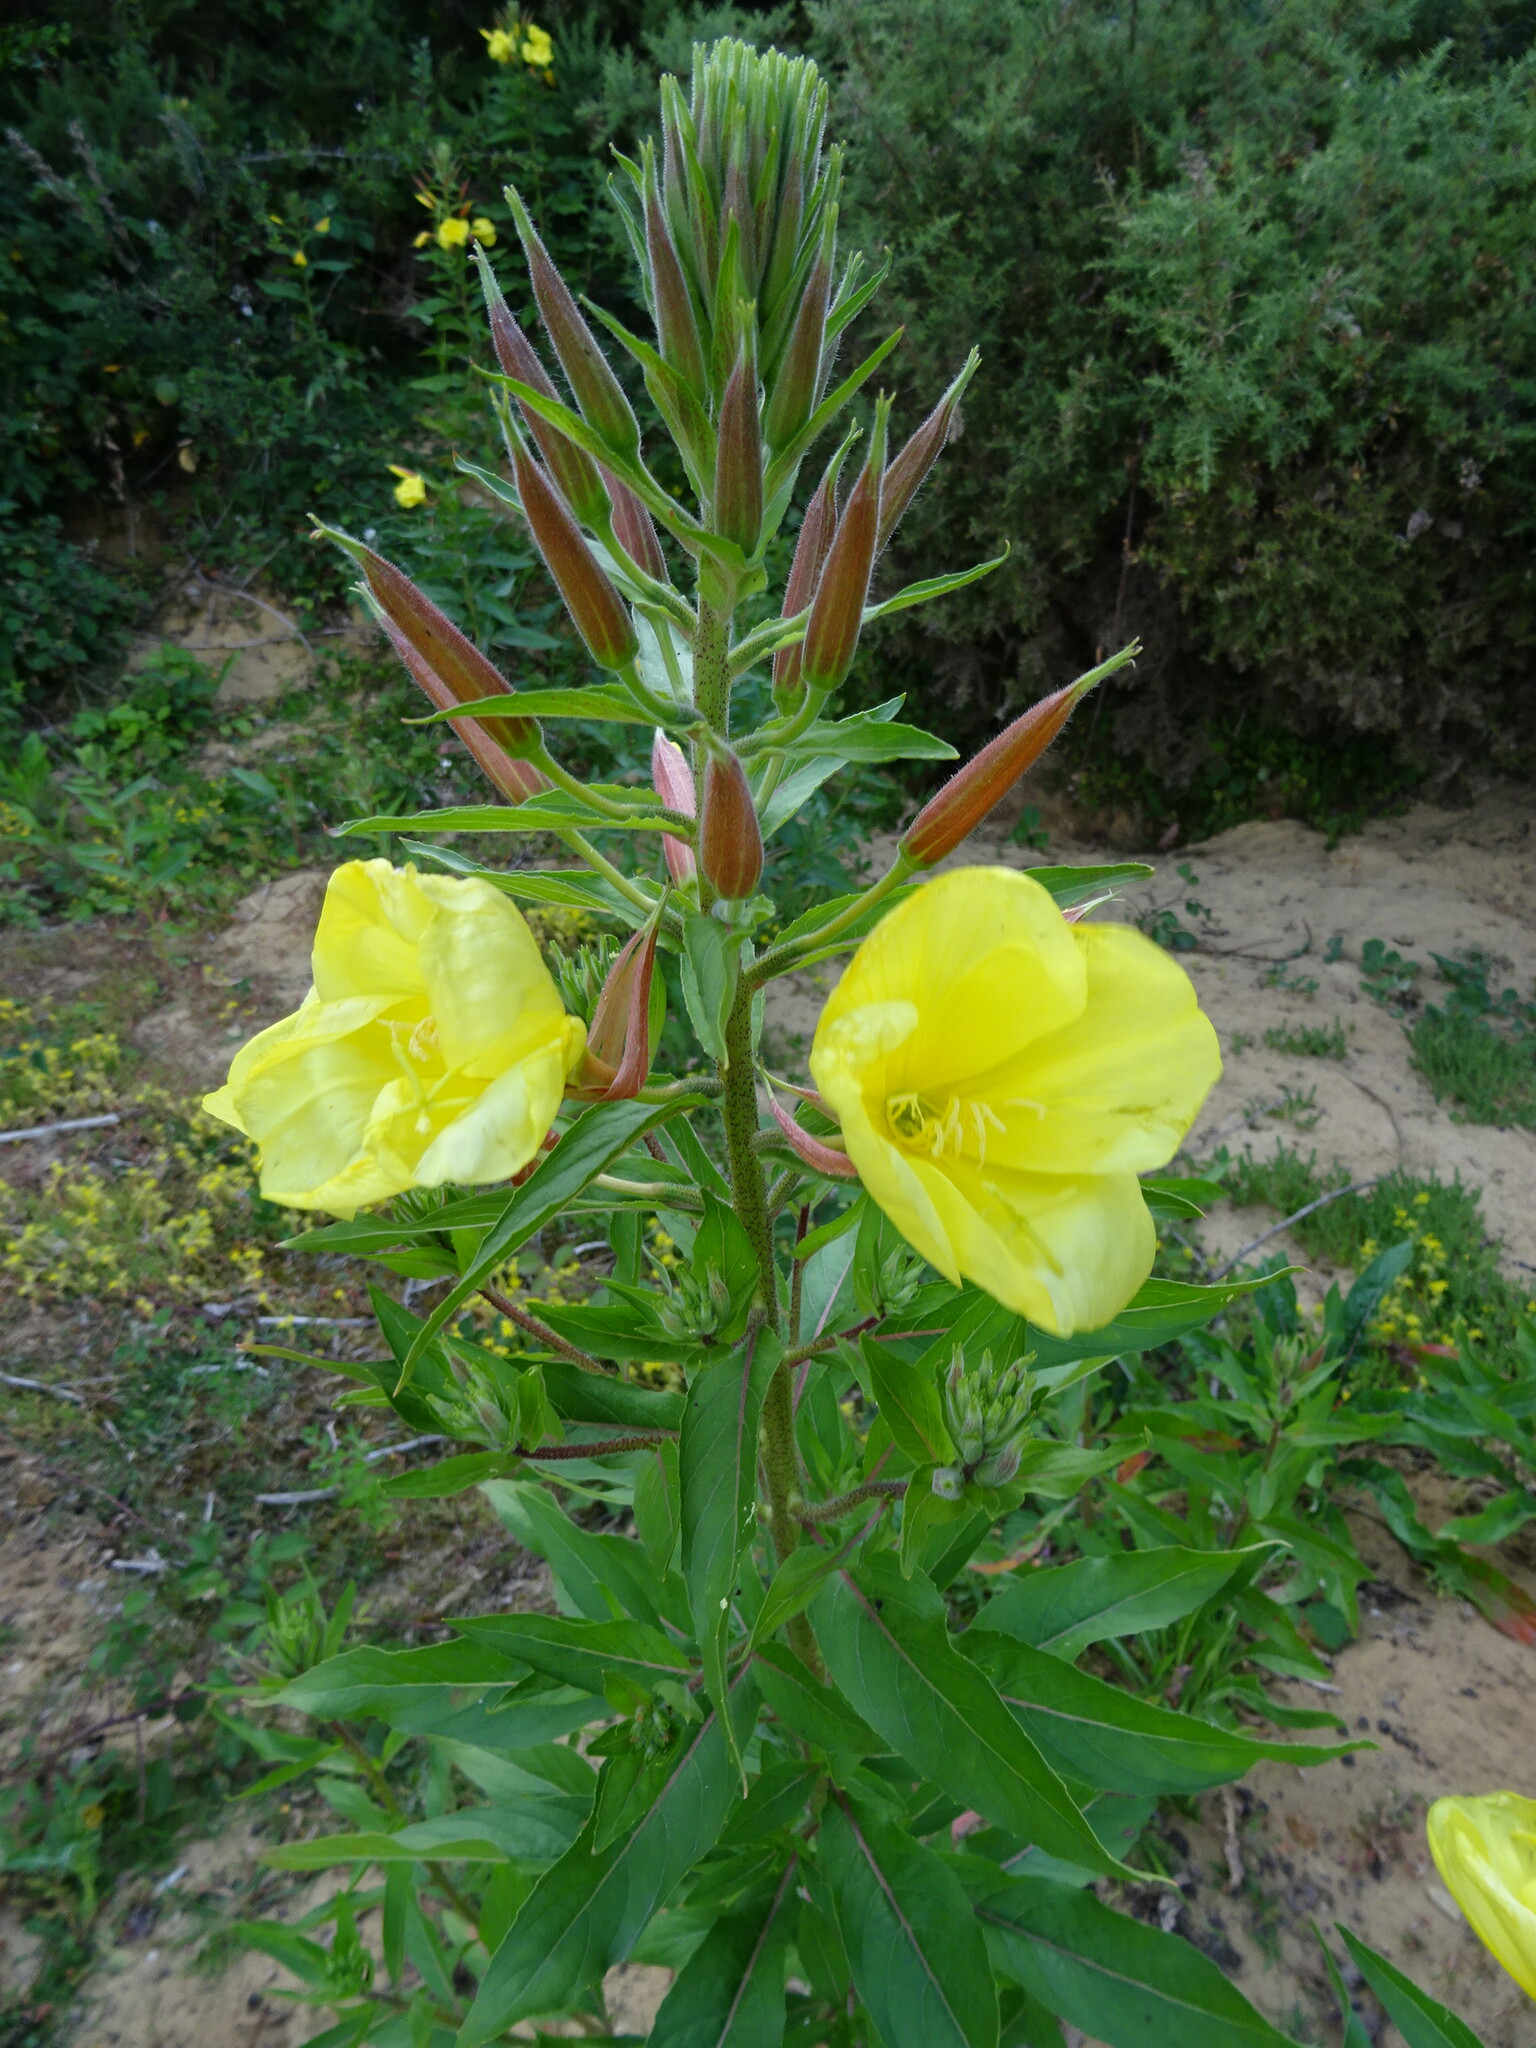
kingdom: Plantae
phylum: Tracheophyta
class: Magnoliopsida
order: Myrtales
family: Onagraceae
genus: Oenothera
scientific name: Oenothera glazioviana
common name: Large-flowered evening-primrose
